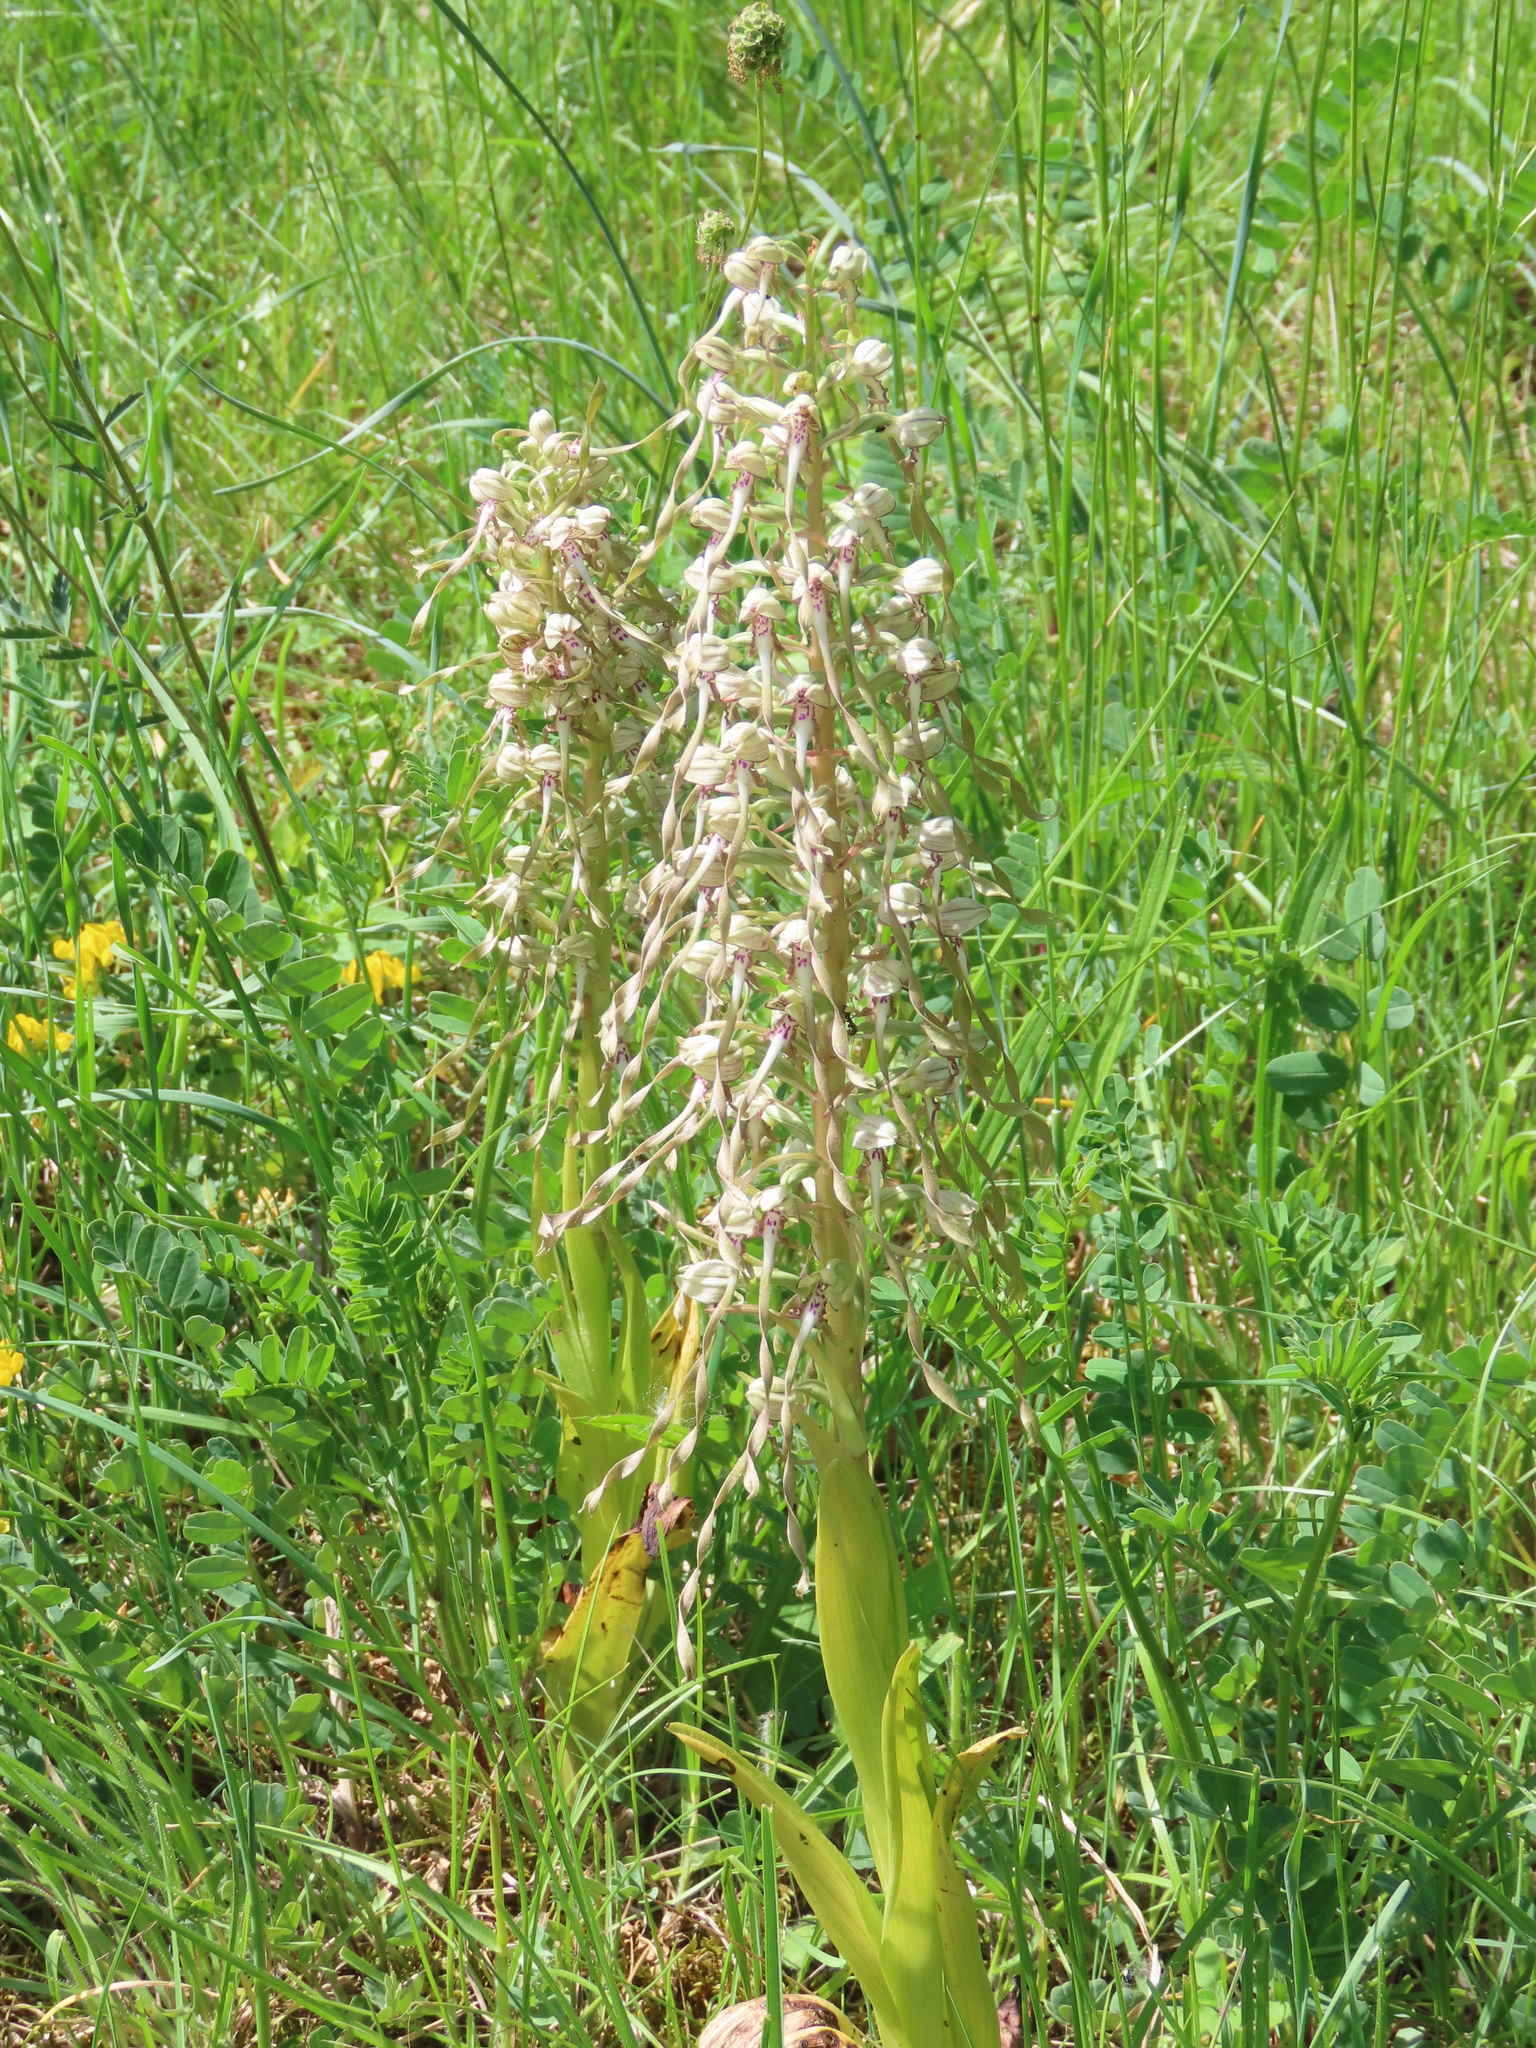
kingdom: Plantae
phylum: Tracheophyta
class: Liliopsida
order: Asparagales
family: Orchidaceae
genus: Himantoglossum
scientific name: Himantoglossum hircinum
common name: Lizard orchid
